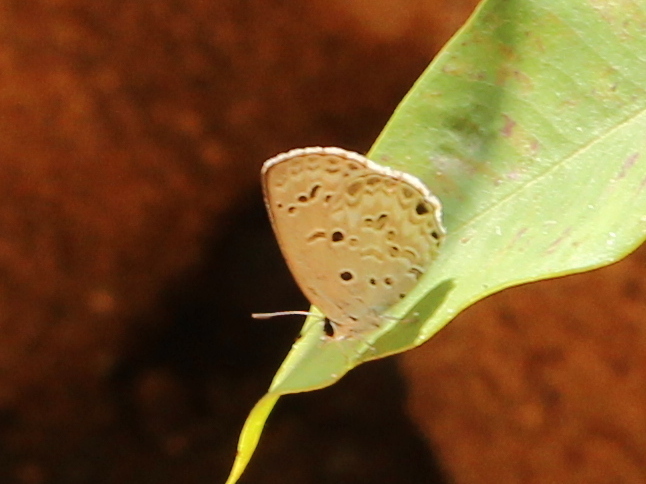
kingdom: Animalia
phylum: Arthropoda
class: Insecta
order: Lepidoptera
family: Lycaenidae
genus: Chilades
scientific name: Chilades laius
